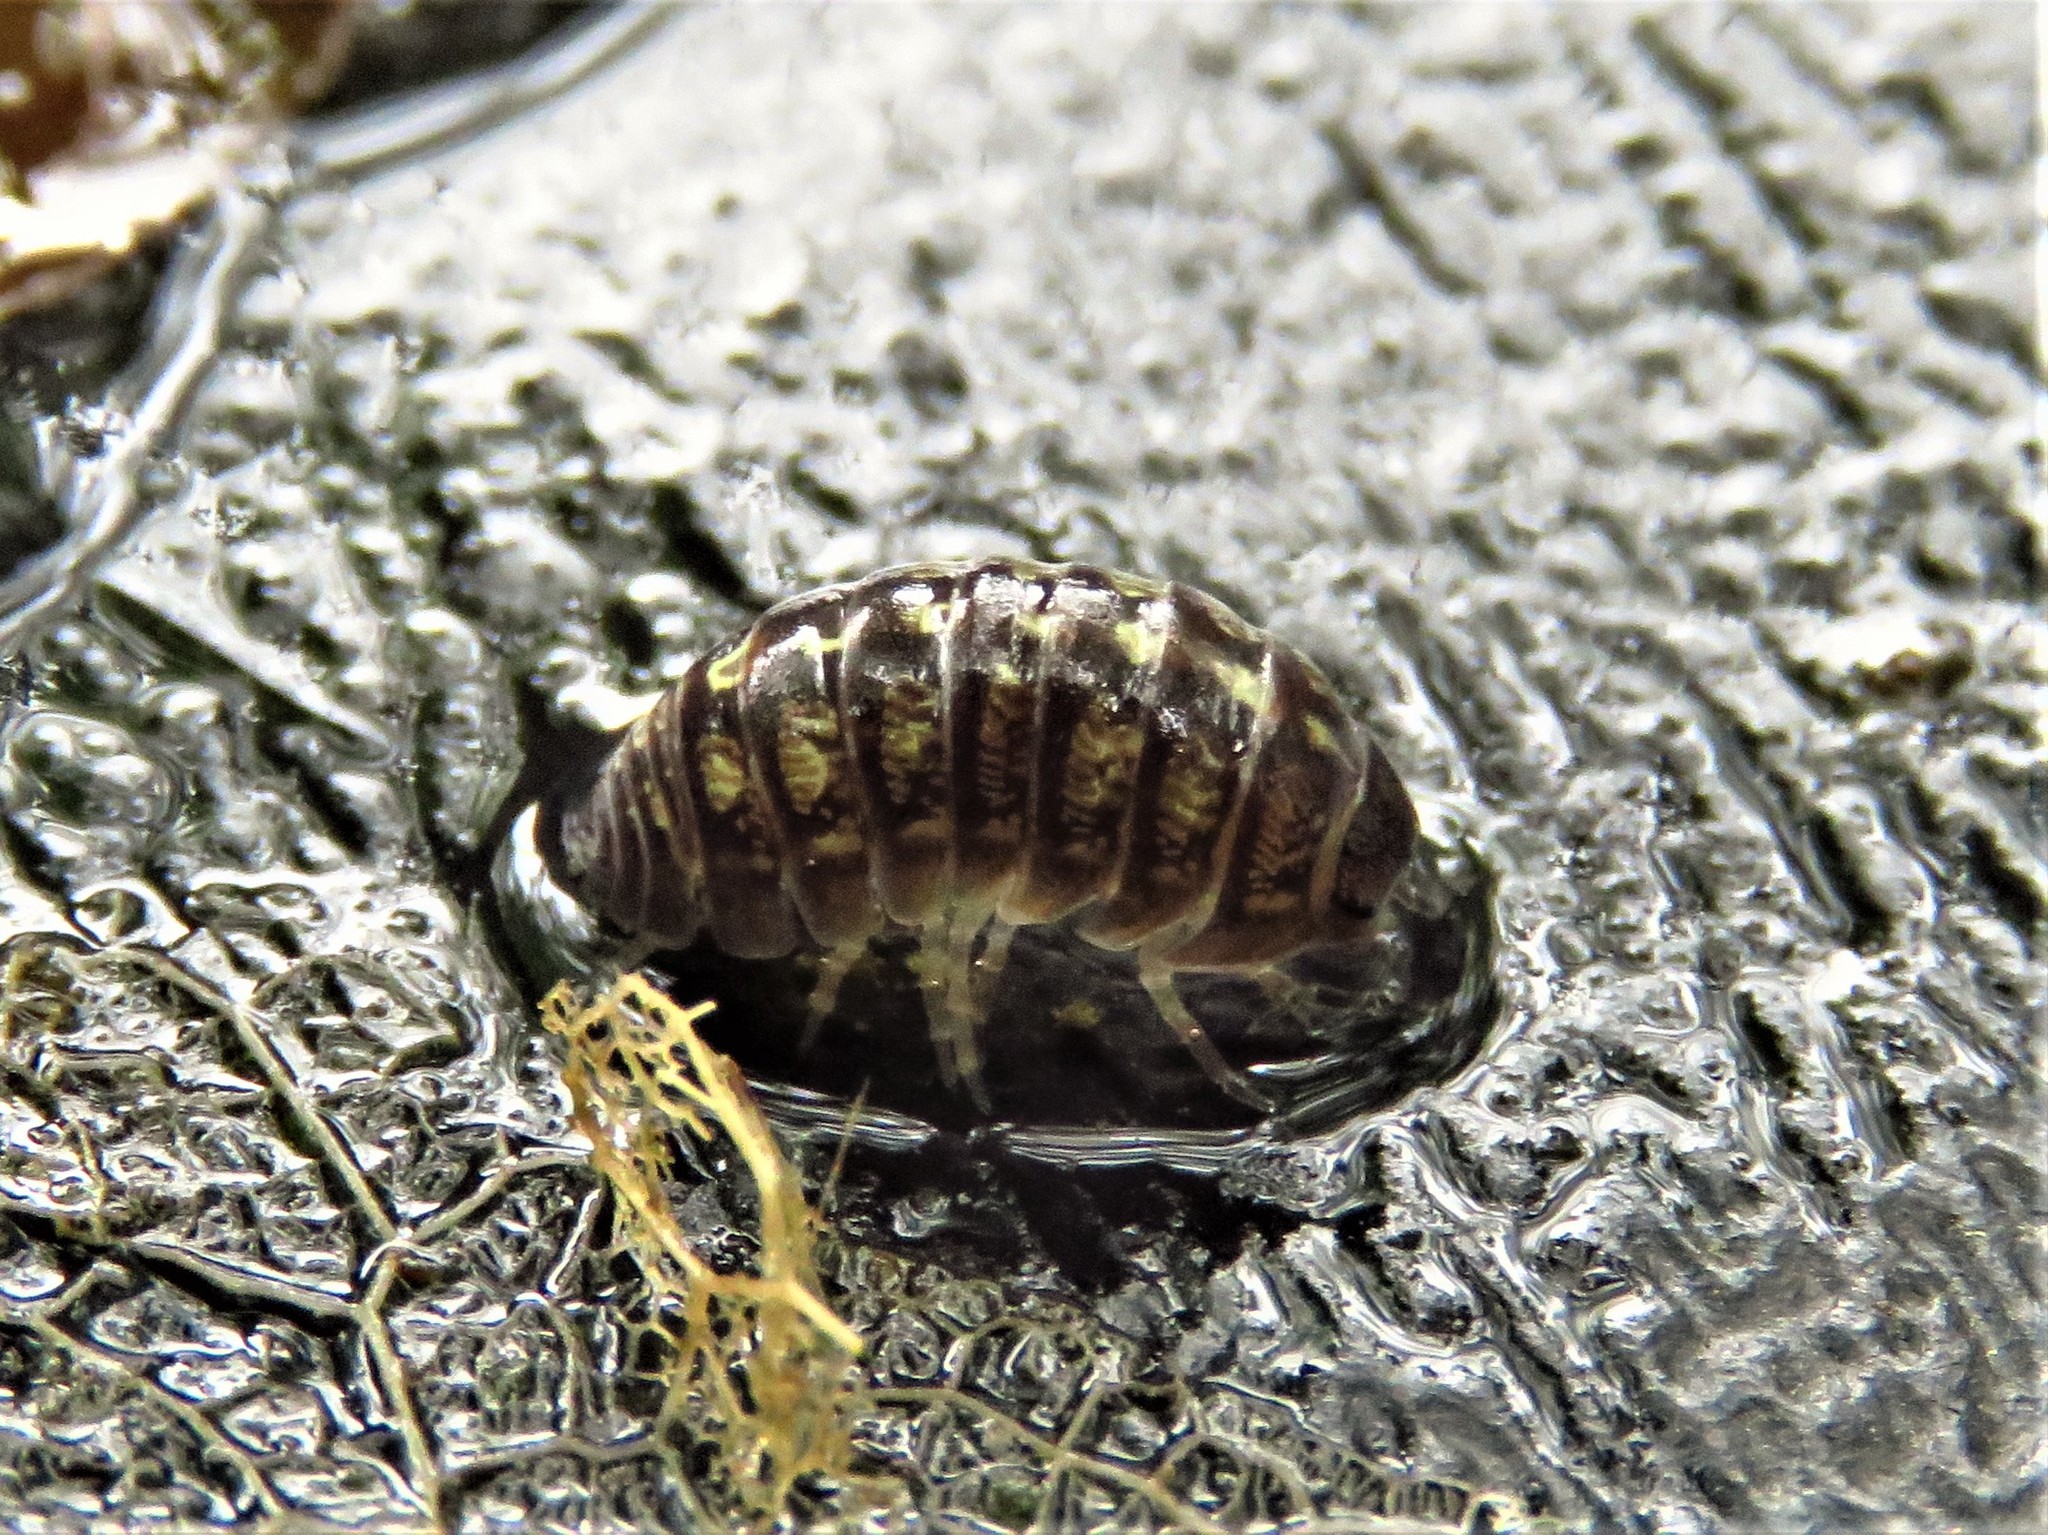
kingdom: Animalia
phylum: Arthropoda
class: Malacostraca
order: Isopoda
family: Armadillidiidae
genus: Armadillidium
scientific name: Armadillidium vulgare
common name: Common pill woodlouse
